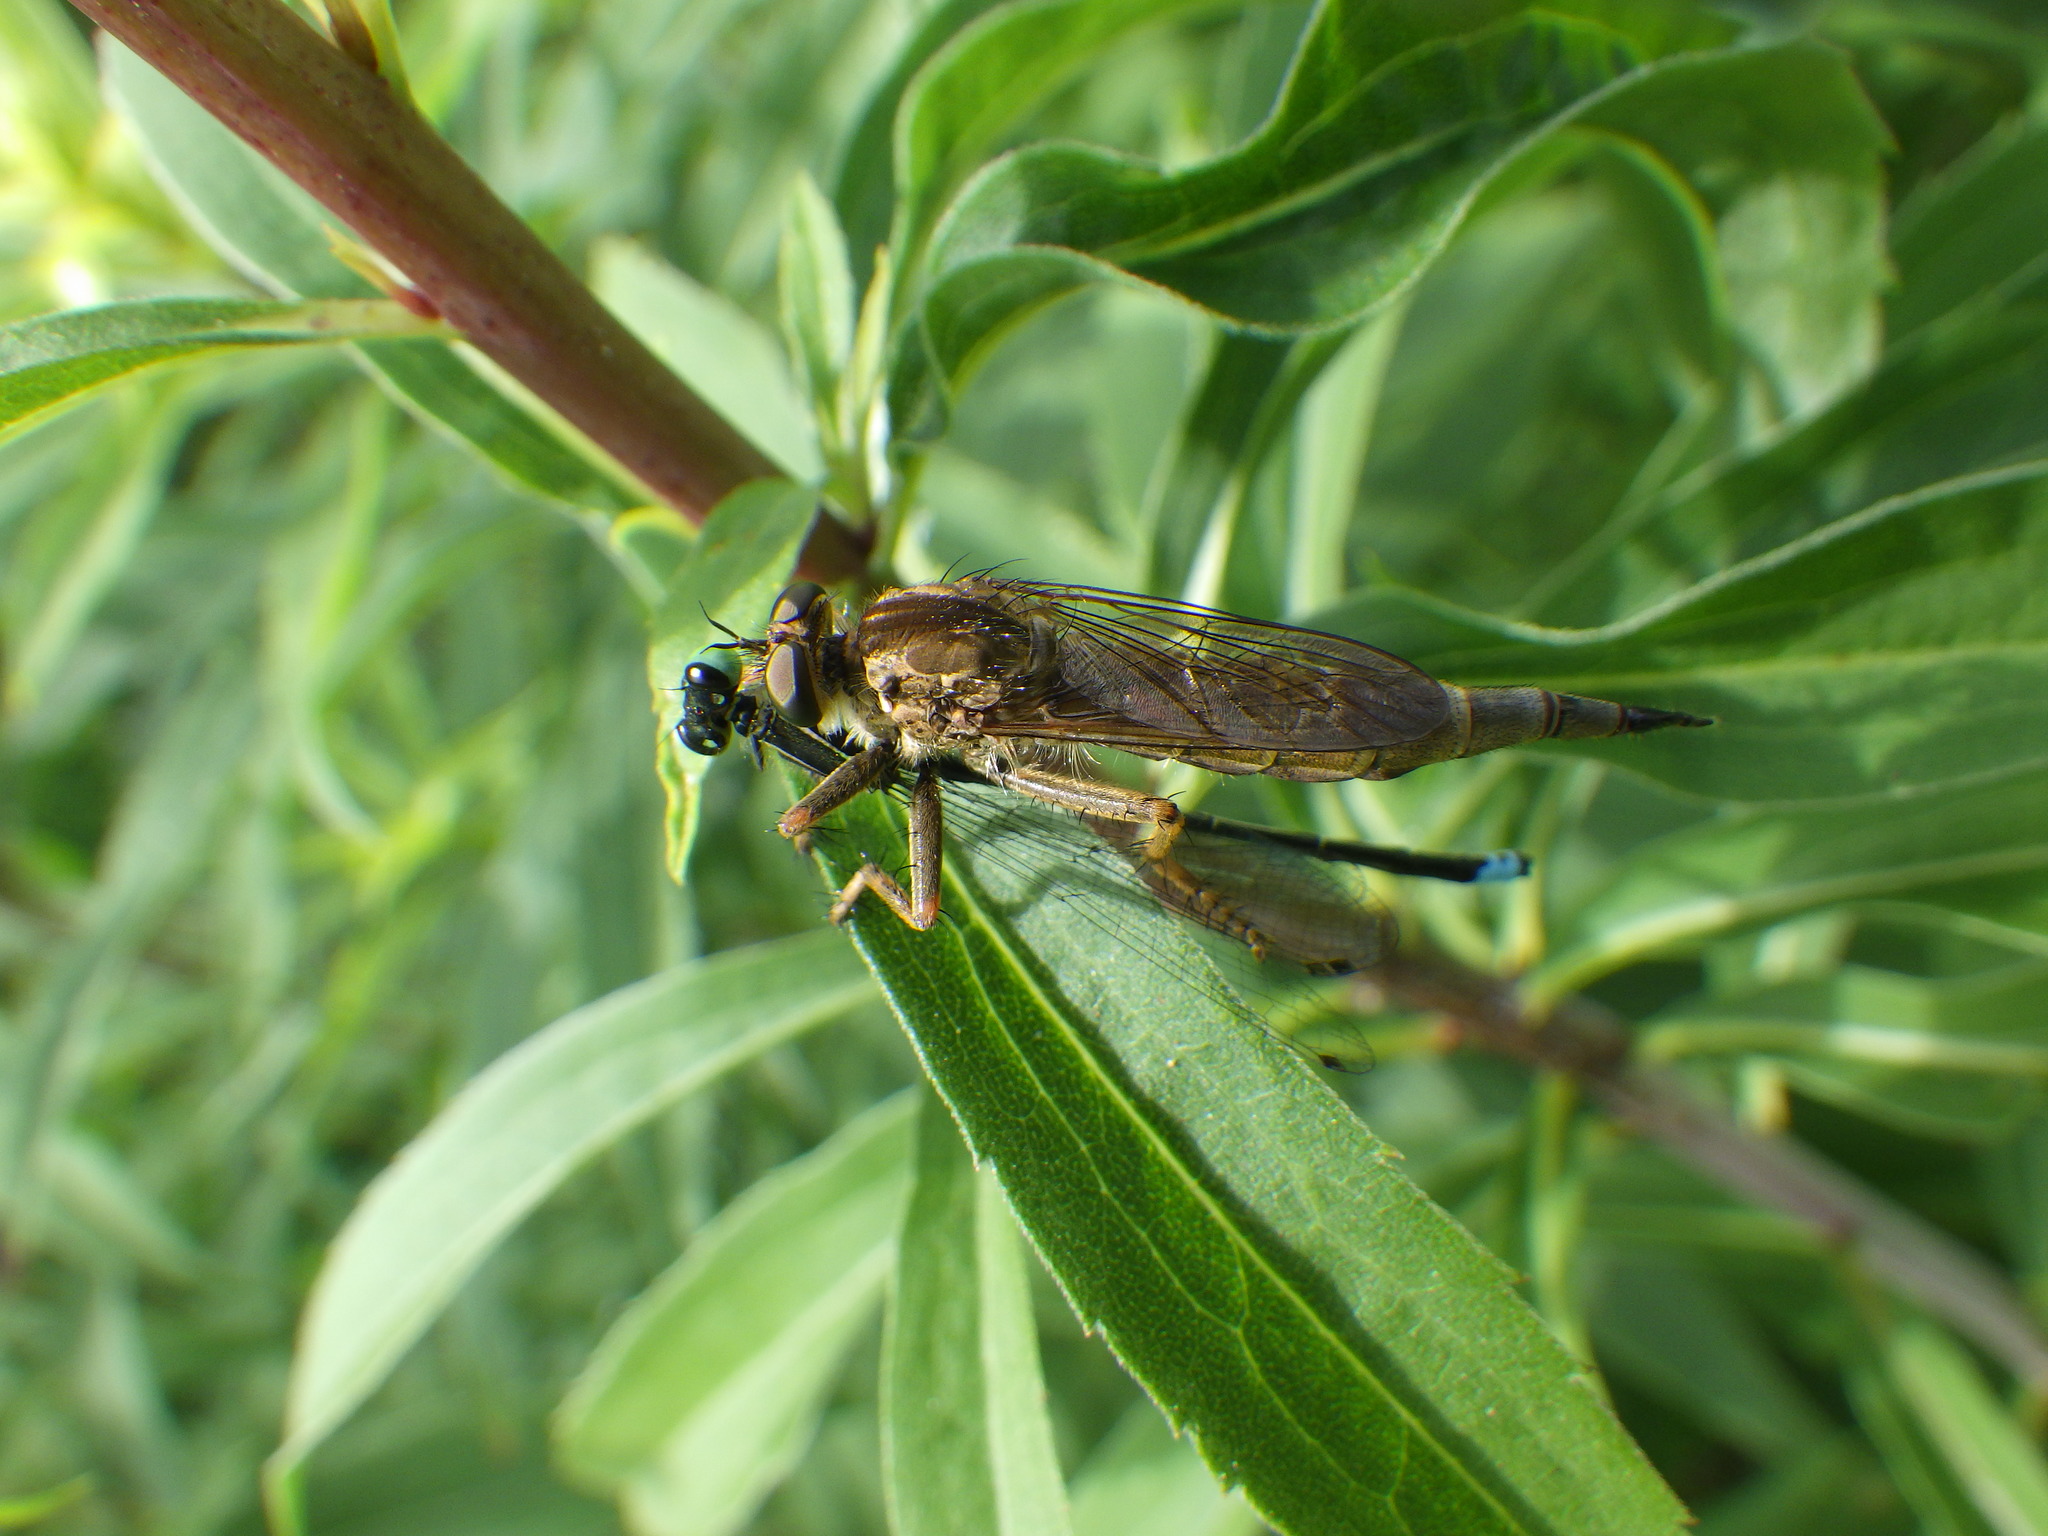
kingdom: Animalia
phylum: Arthropoda
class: Insecta
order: Diptera
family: Asilidae
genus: Machimus
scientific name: Machimus snowii
